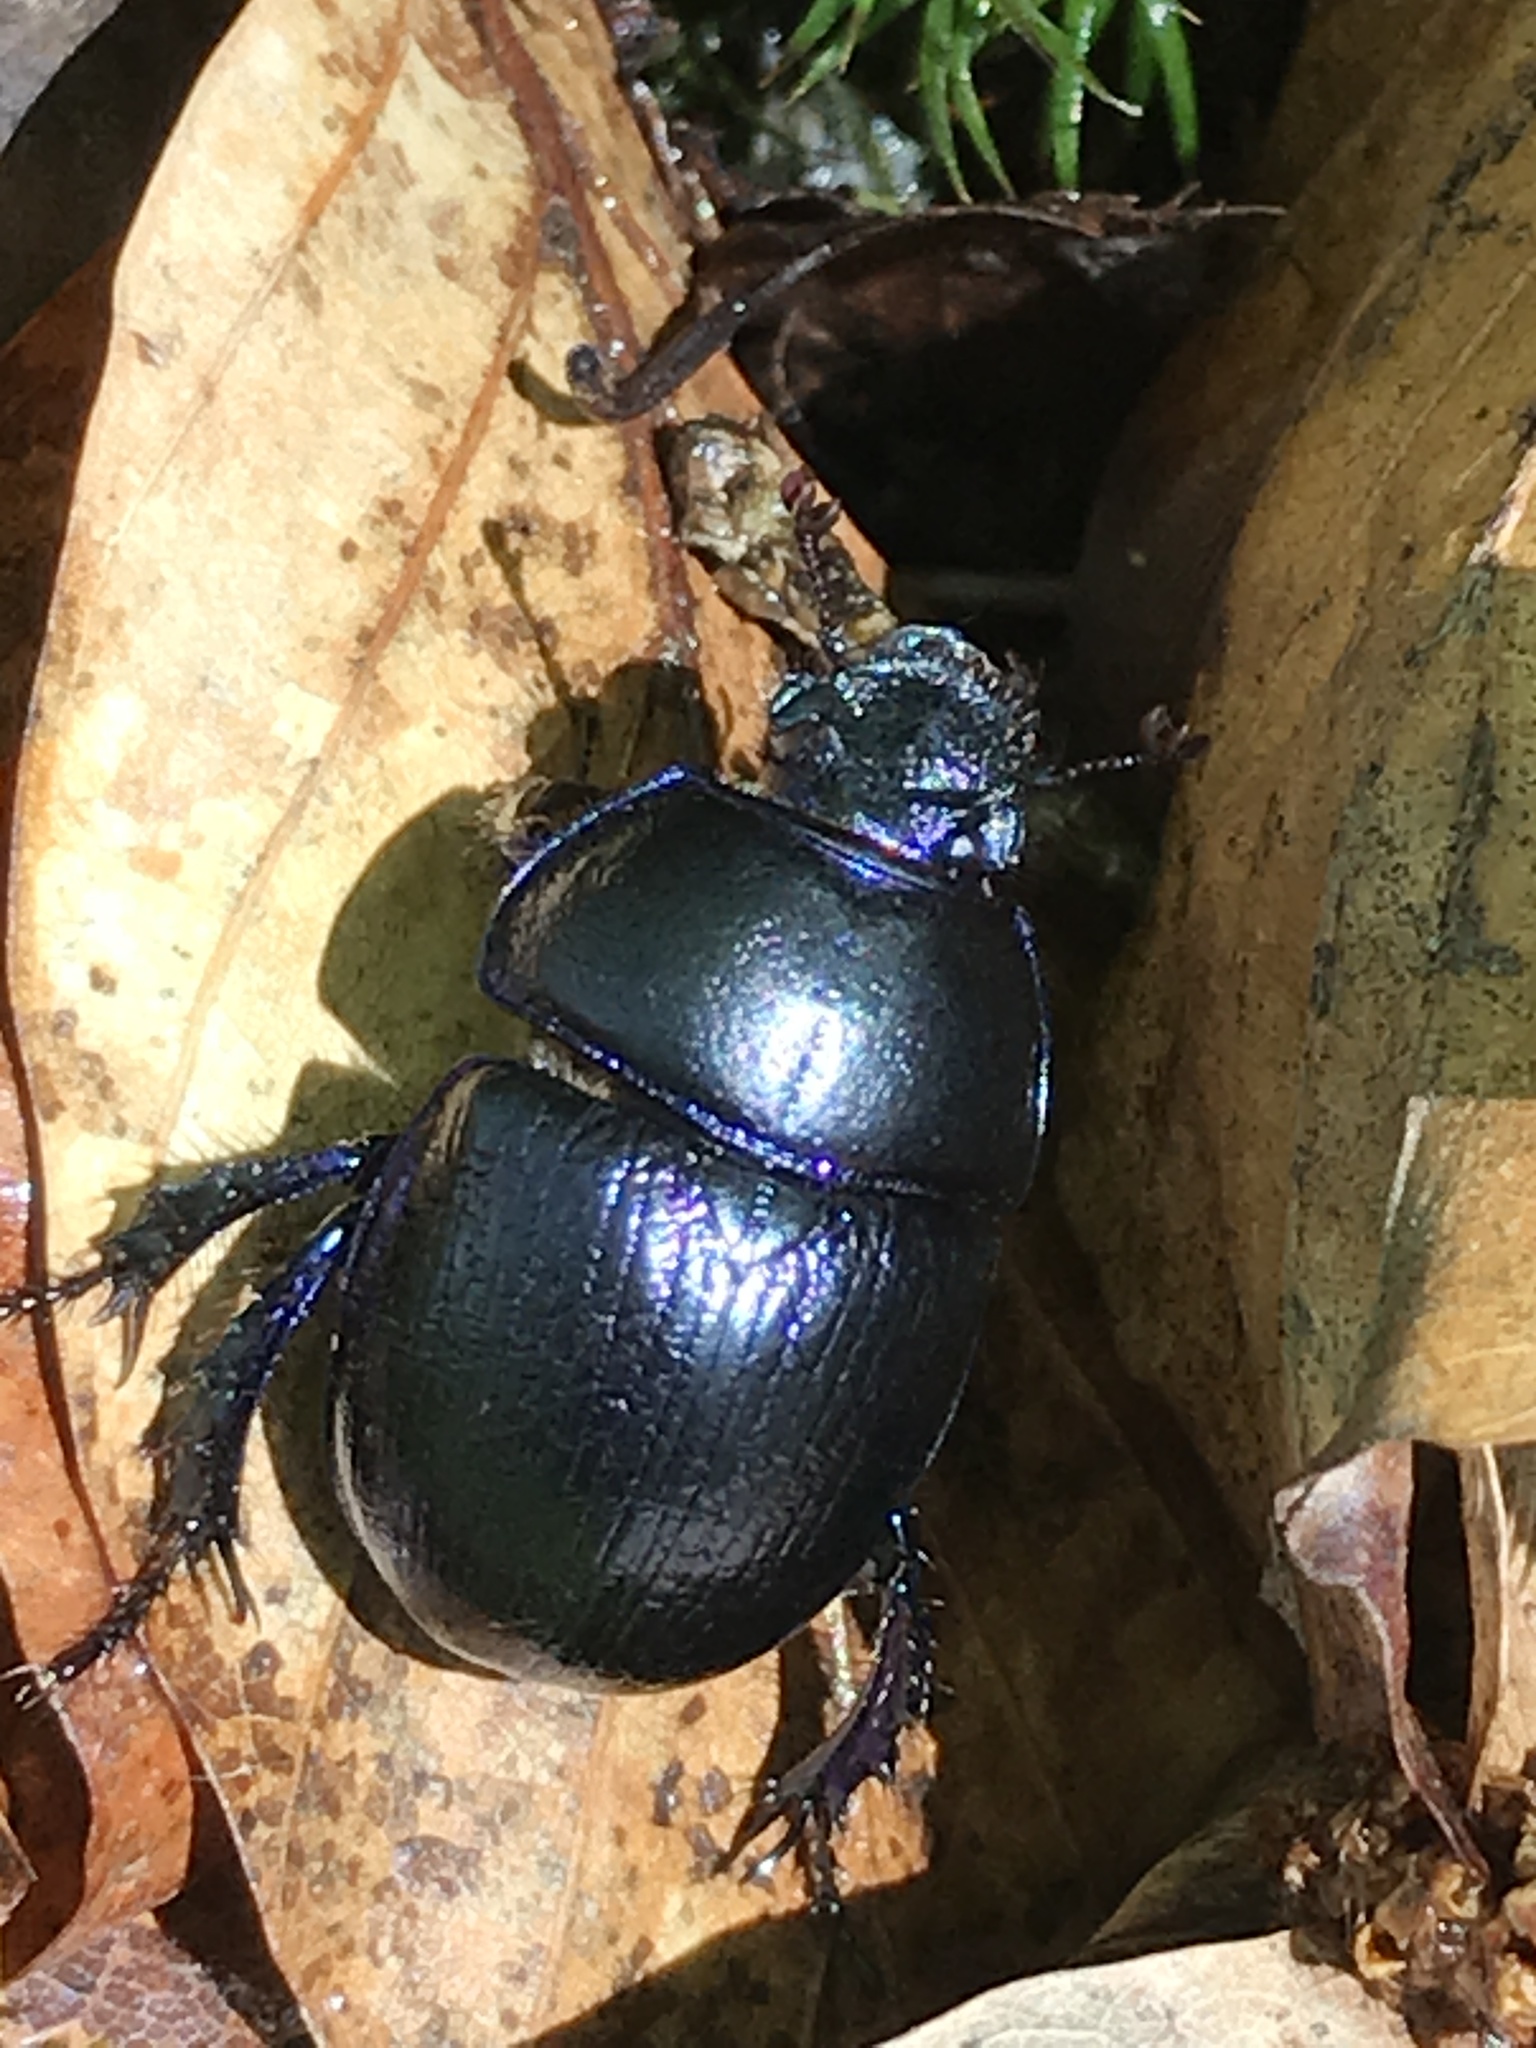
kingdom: Animalia
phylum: Arthropoda
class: Insecta
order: Coleoptera
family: Geotrupidae
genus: Anoplotrupes
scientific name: Anoplotrupes stercorosus
